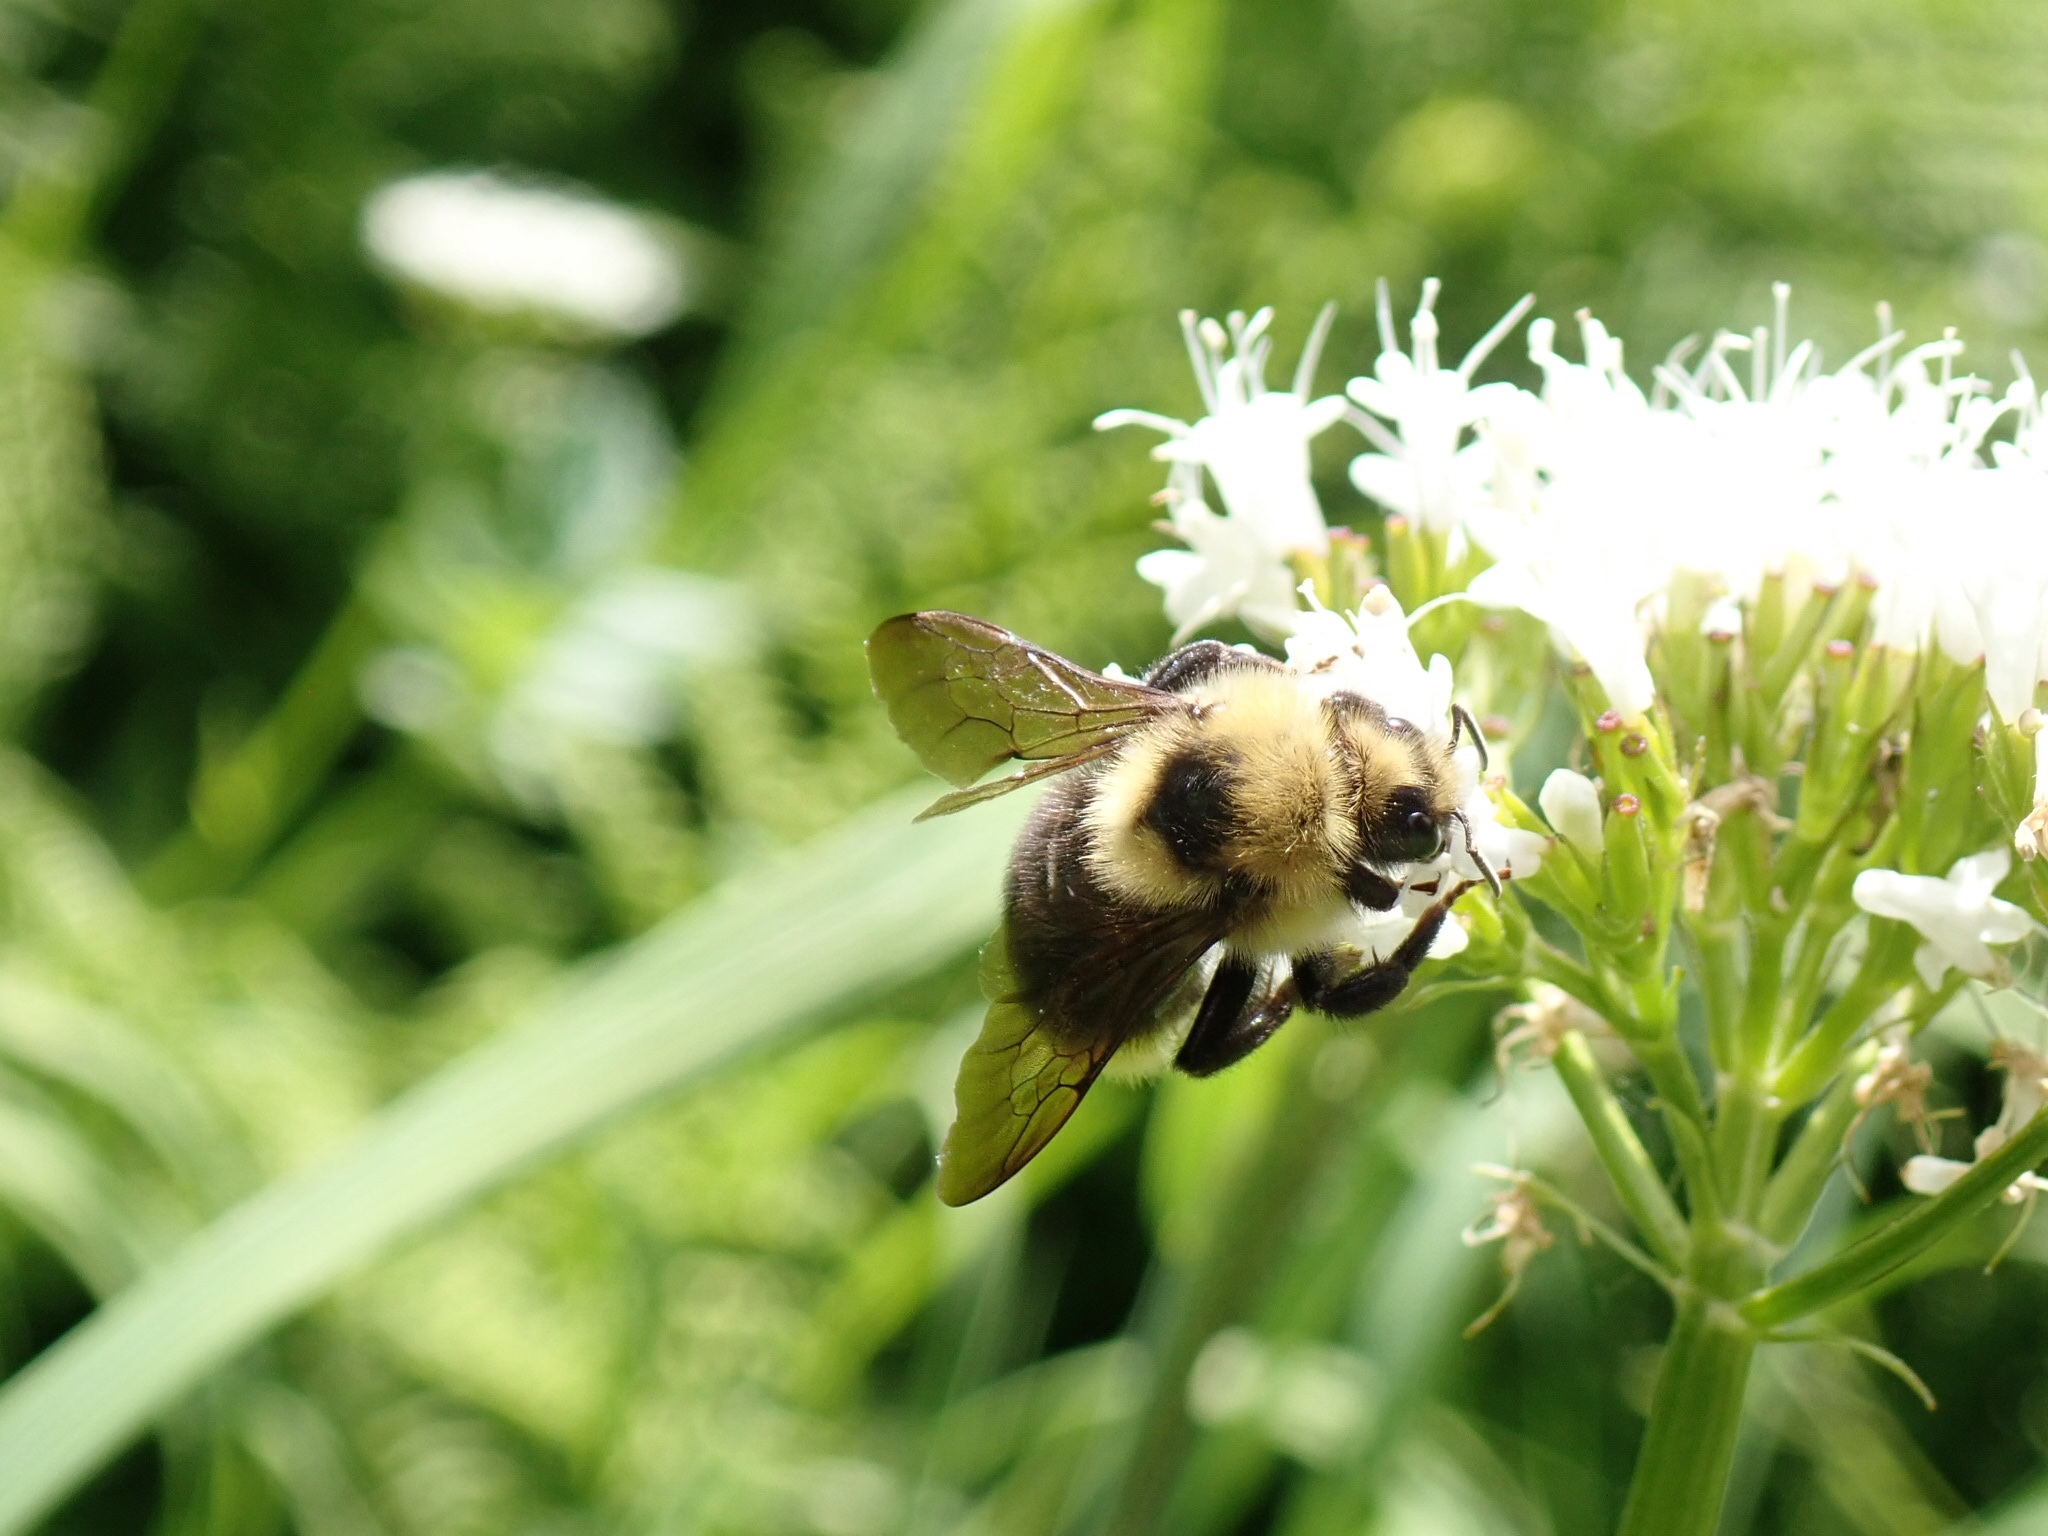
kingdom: Animalia
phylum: Arthropoda
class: Insecta
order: Hymenoptera
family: Apidae
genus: Bombus
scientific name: Bombus insularis
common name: Indiscriminate cuckoo bumble bee
